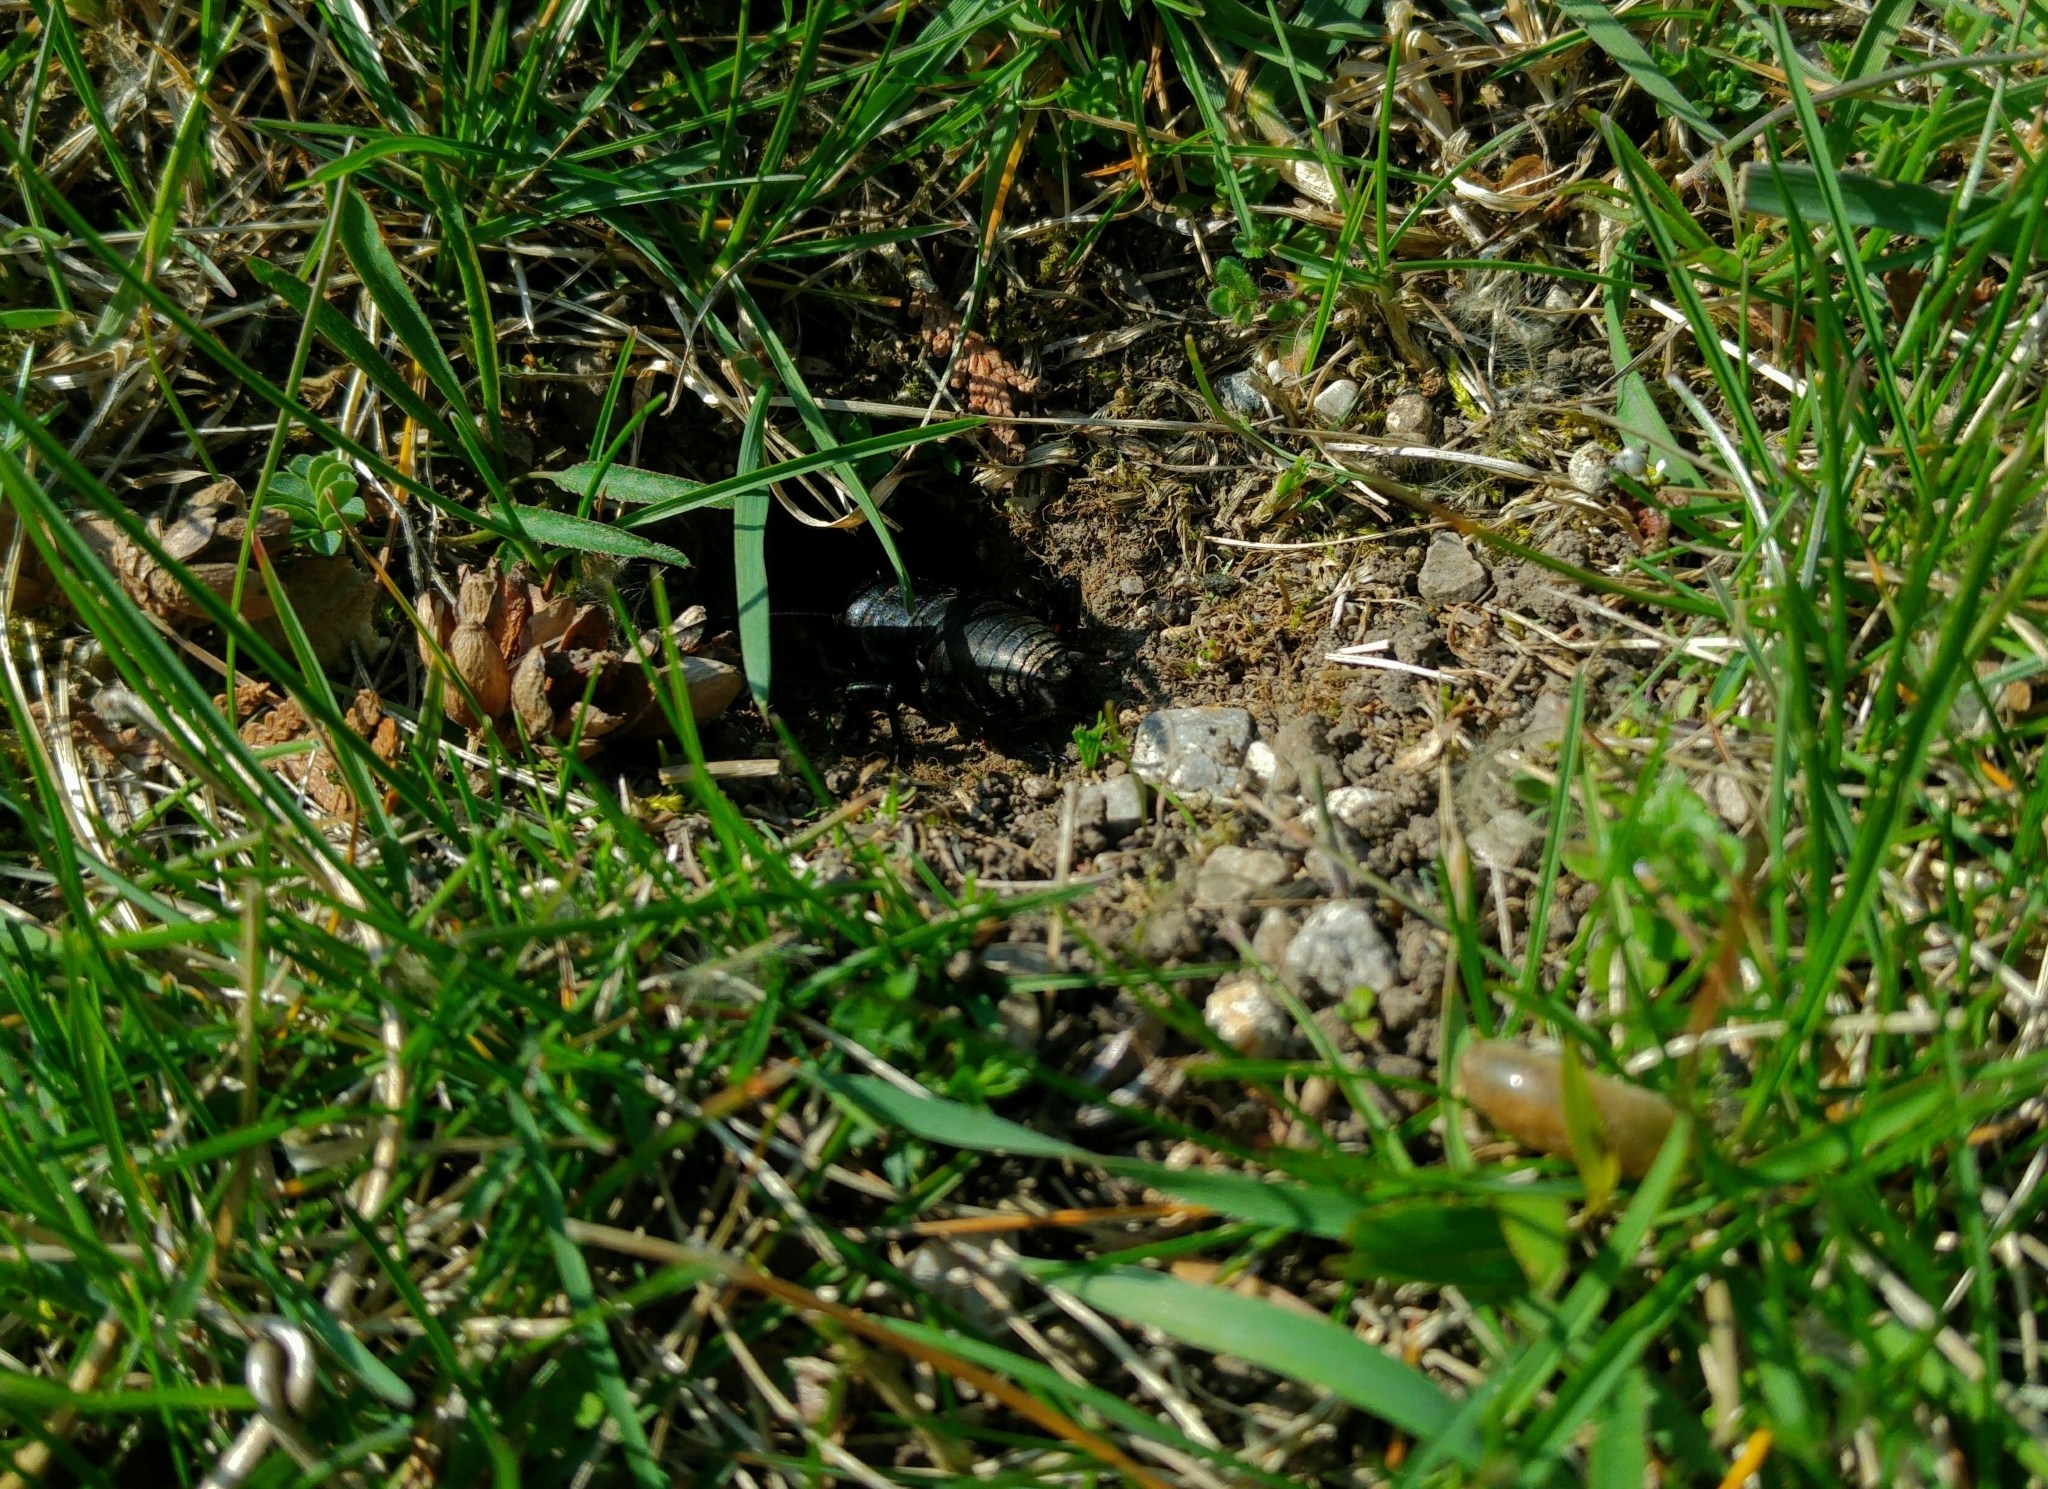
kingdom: Animalia
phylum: Arthropoda
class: Insecta
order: Orthoptera
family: Gryllidae
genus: Gryllus
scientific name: Gryllus campestris
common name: Field cricket
